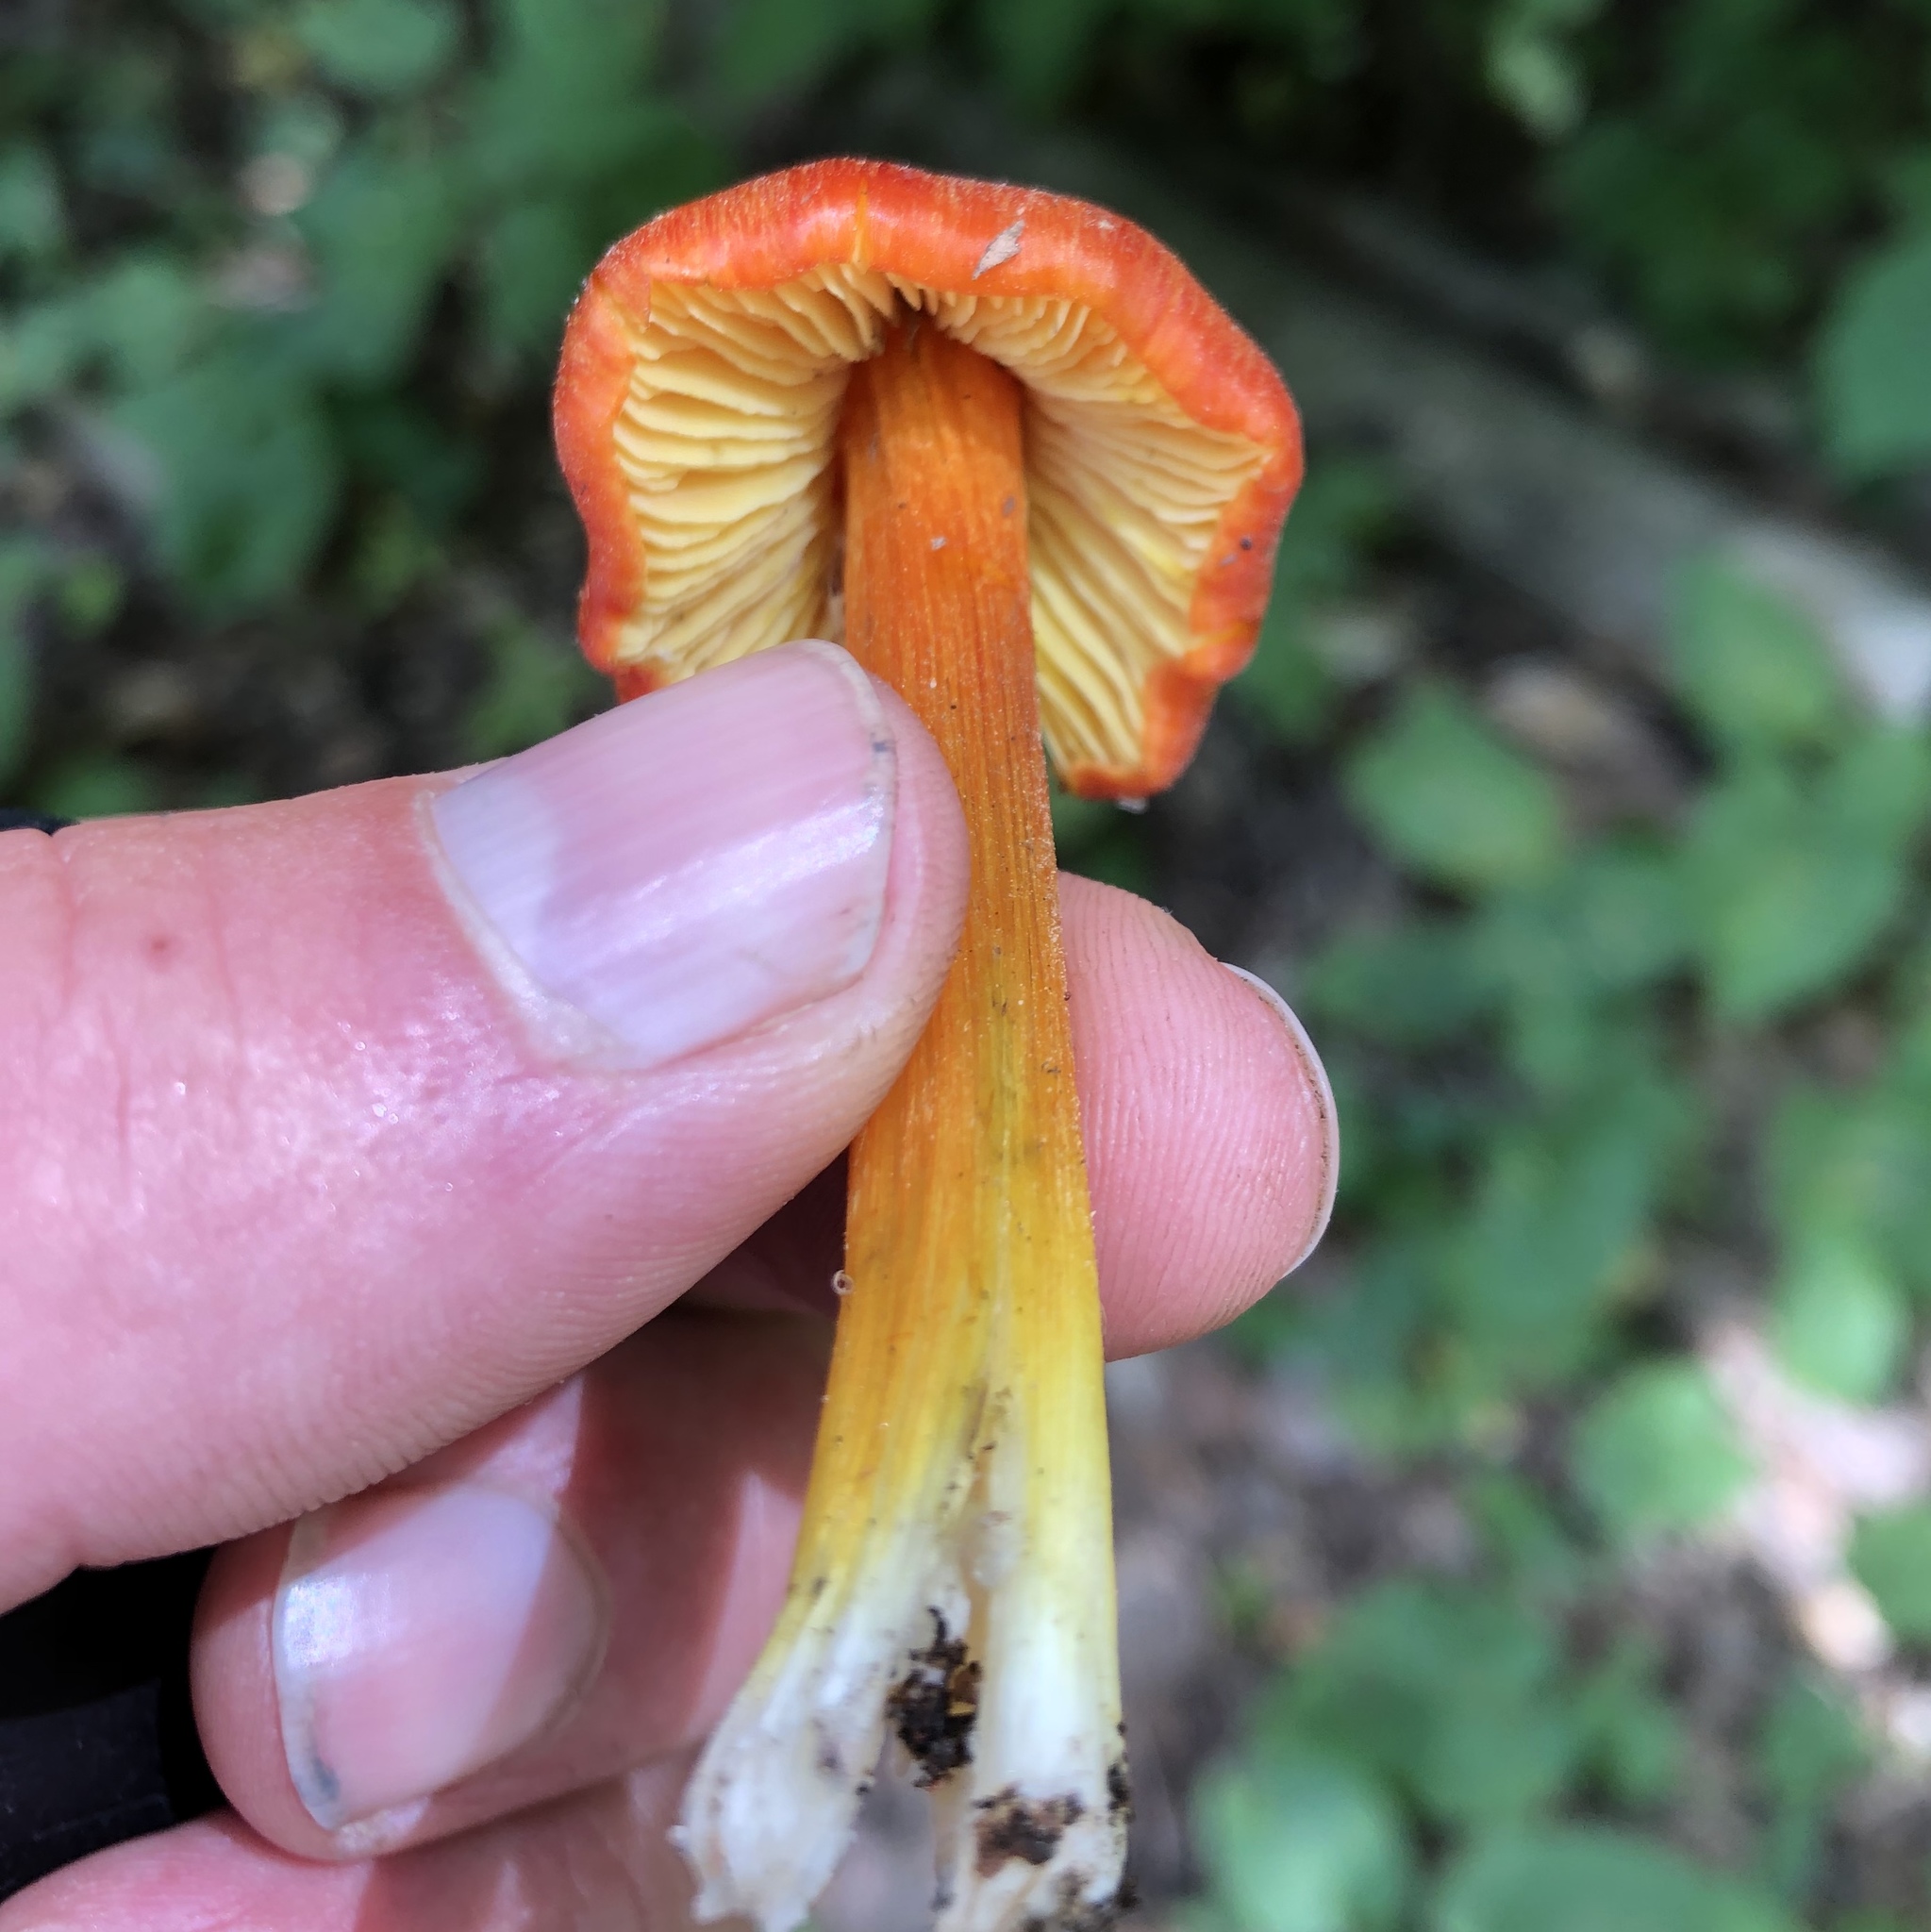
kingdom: Fungi
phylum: Basidiomycota
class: Agaricomycetes
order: Agaricales
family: Hygrophoraceae
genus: Hygrocybe
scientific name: Hygrocybe conica
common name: Blackening wax-cap
